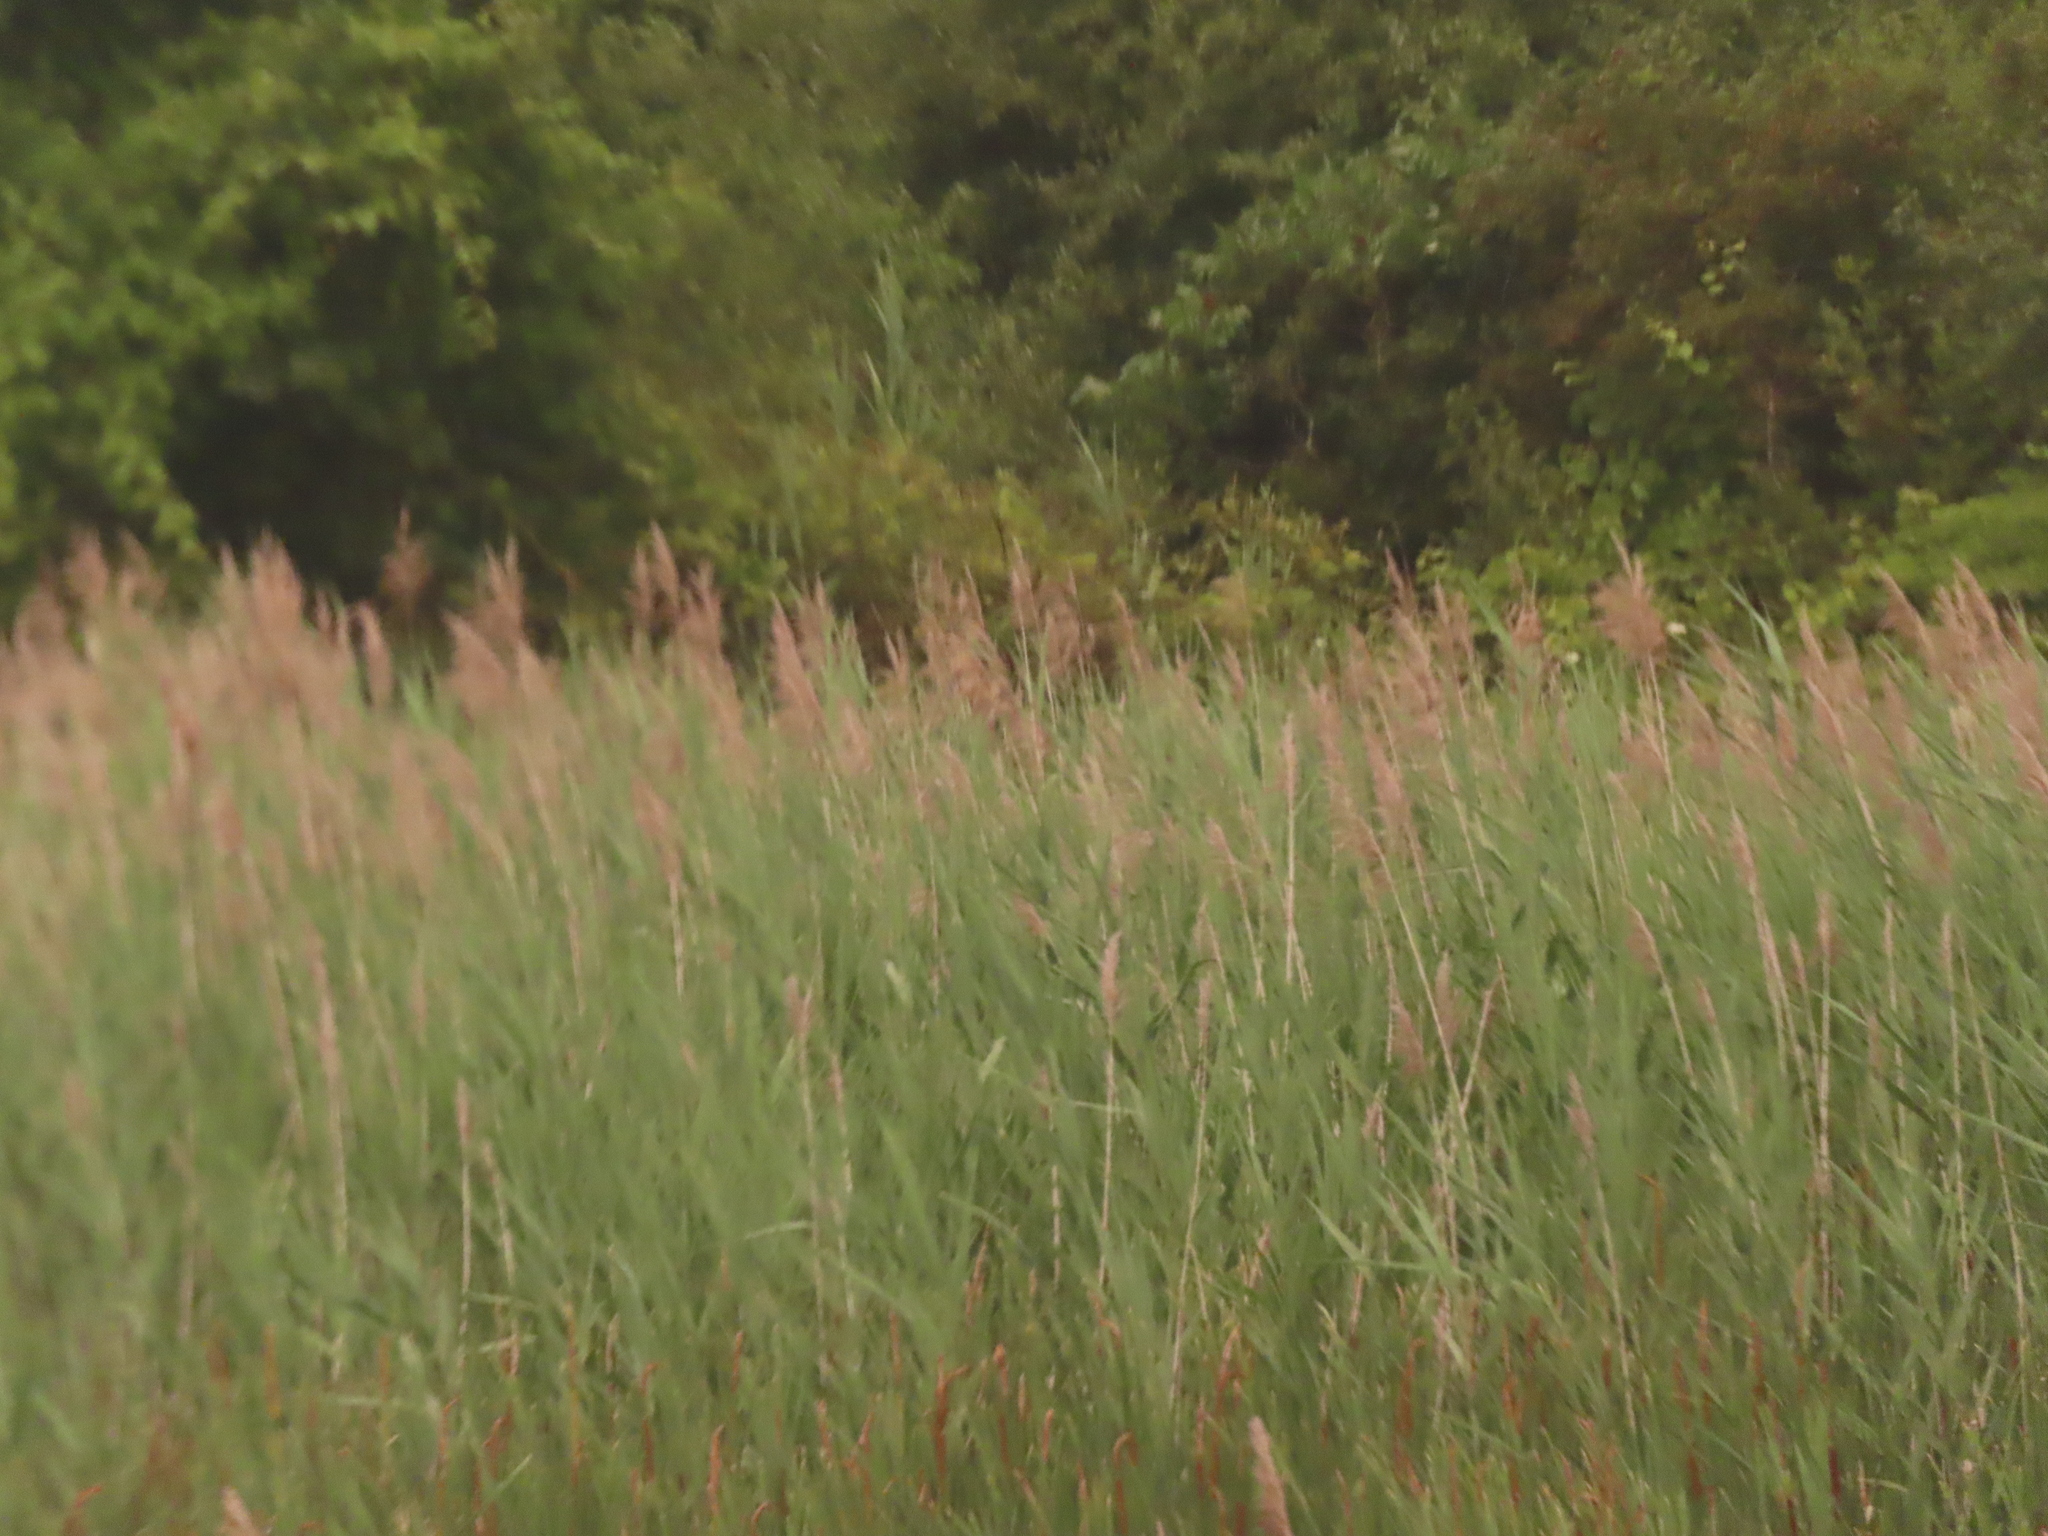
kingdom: Plantae
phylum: Tracheophyta
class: Liliopsida
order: Poales
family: Poaceae
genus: Phragmites
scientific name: Phragmites australis
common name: Common reed
